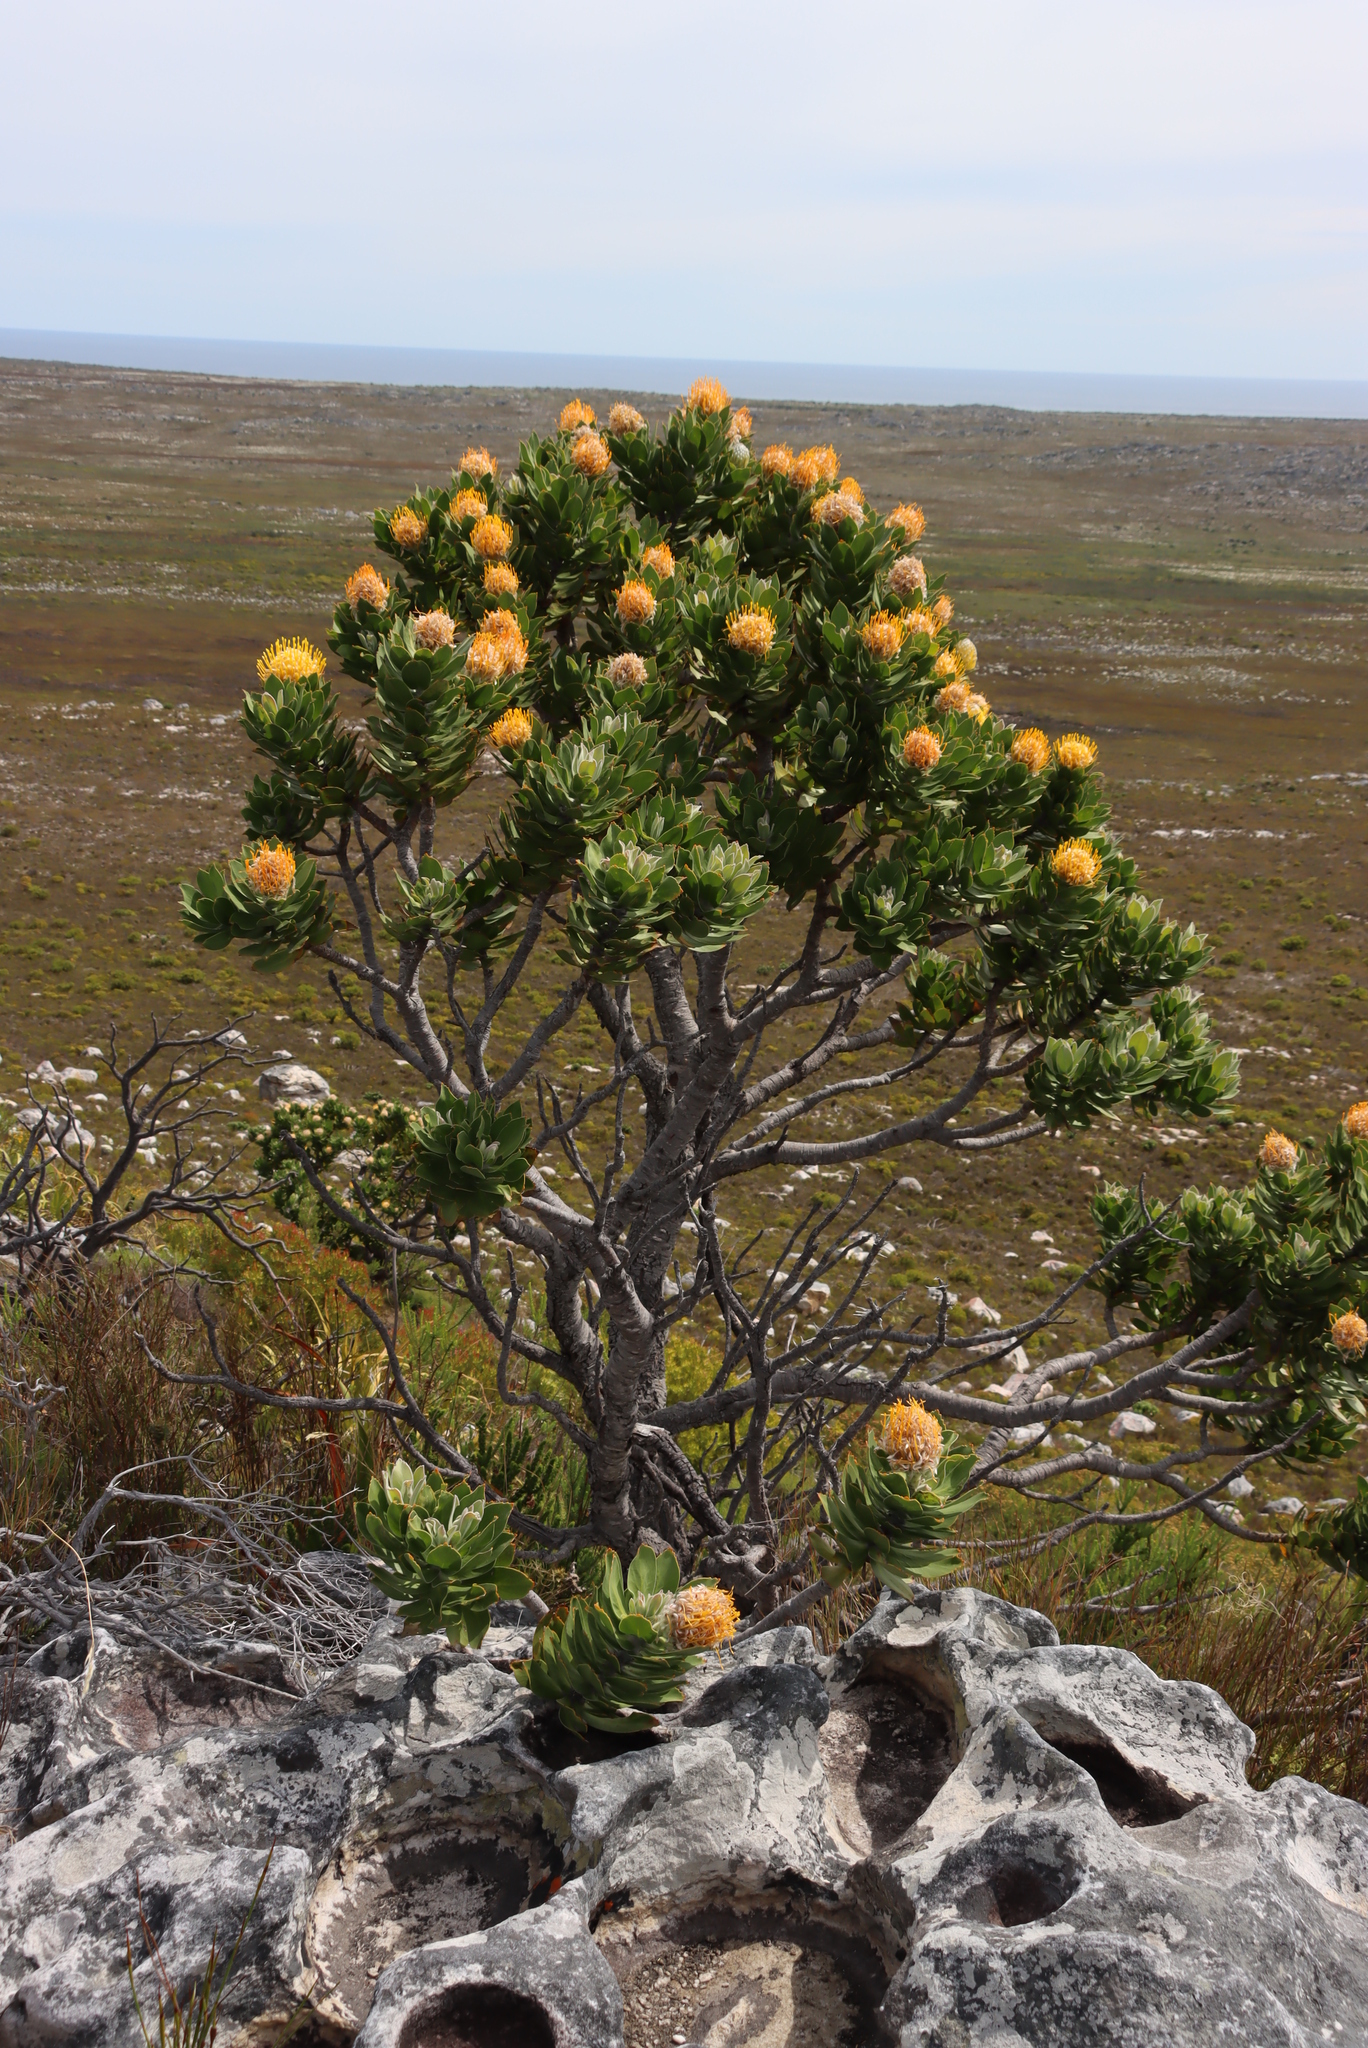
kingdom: Plantae
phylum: Tracheophyta
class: Magnoliopsida
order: Proteales
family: Proteaceae
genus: Leucospermum
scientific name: Leucospermum conocarpodendron
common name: Tree pincushion
